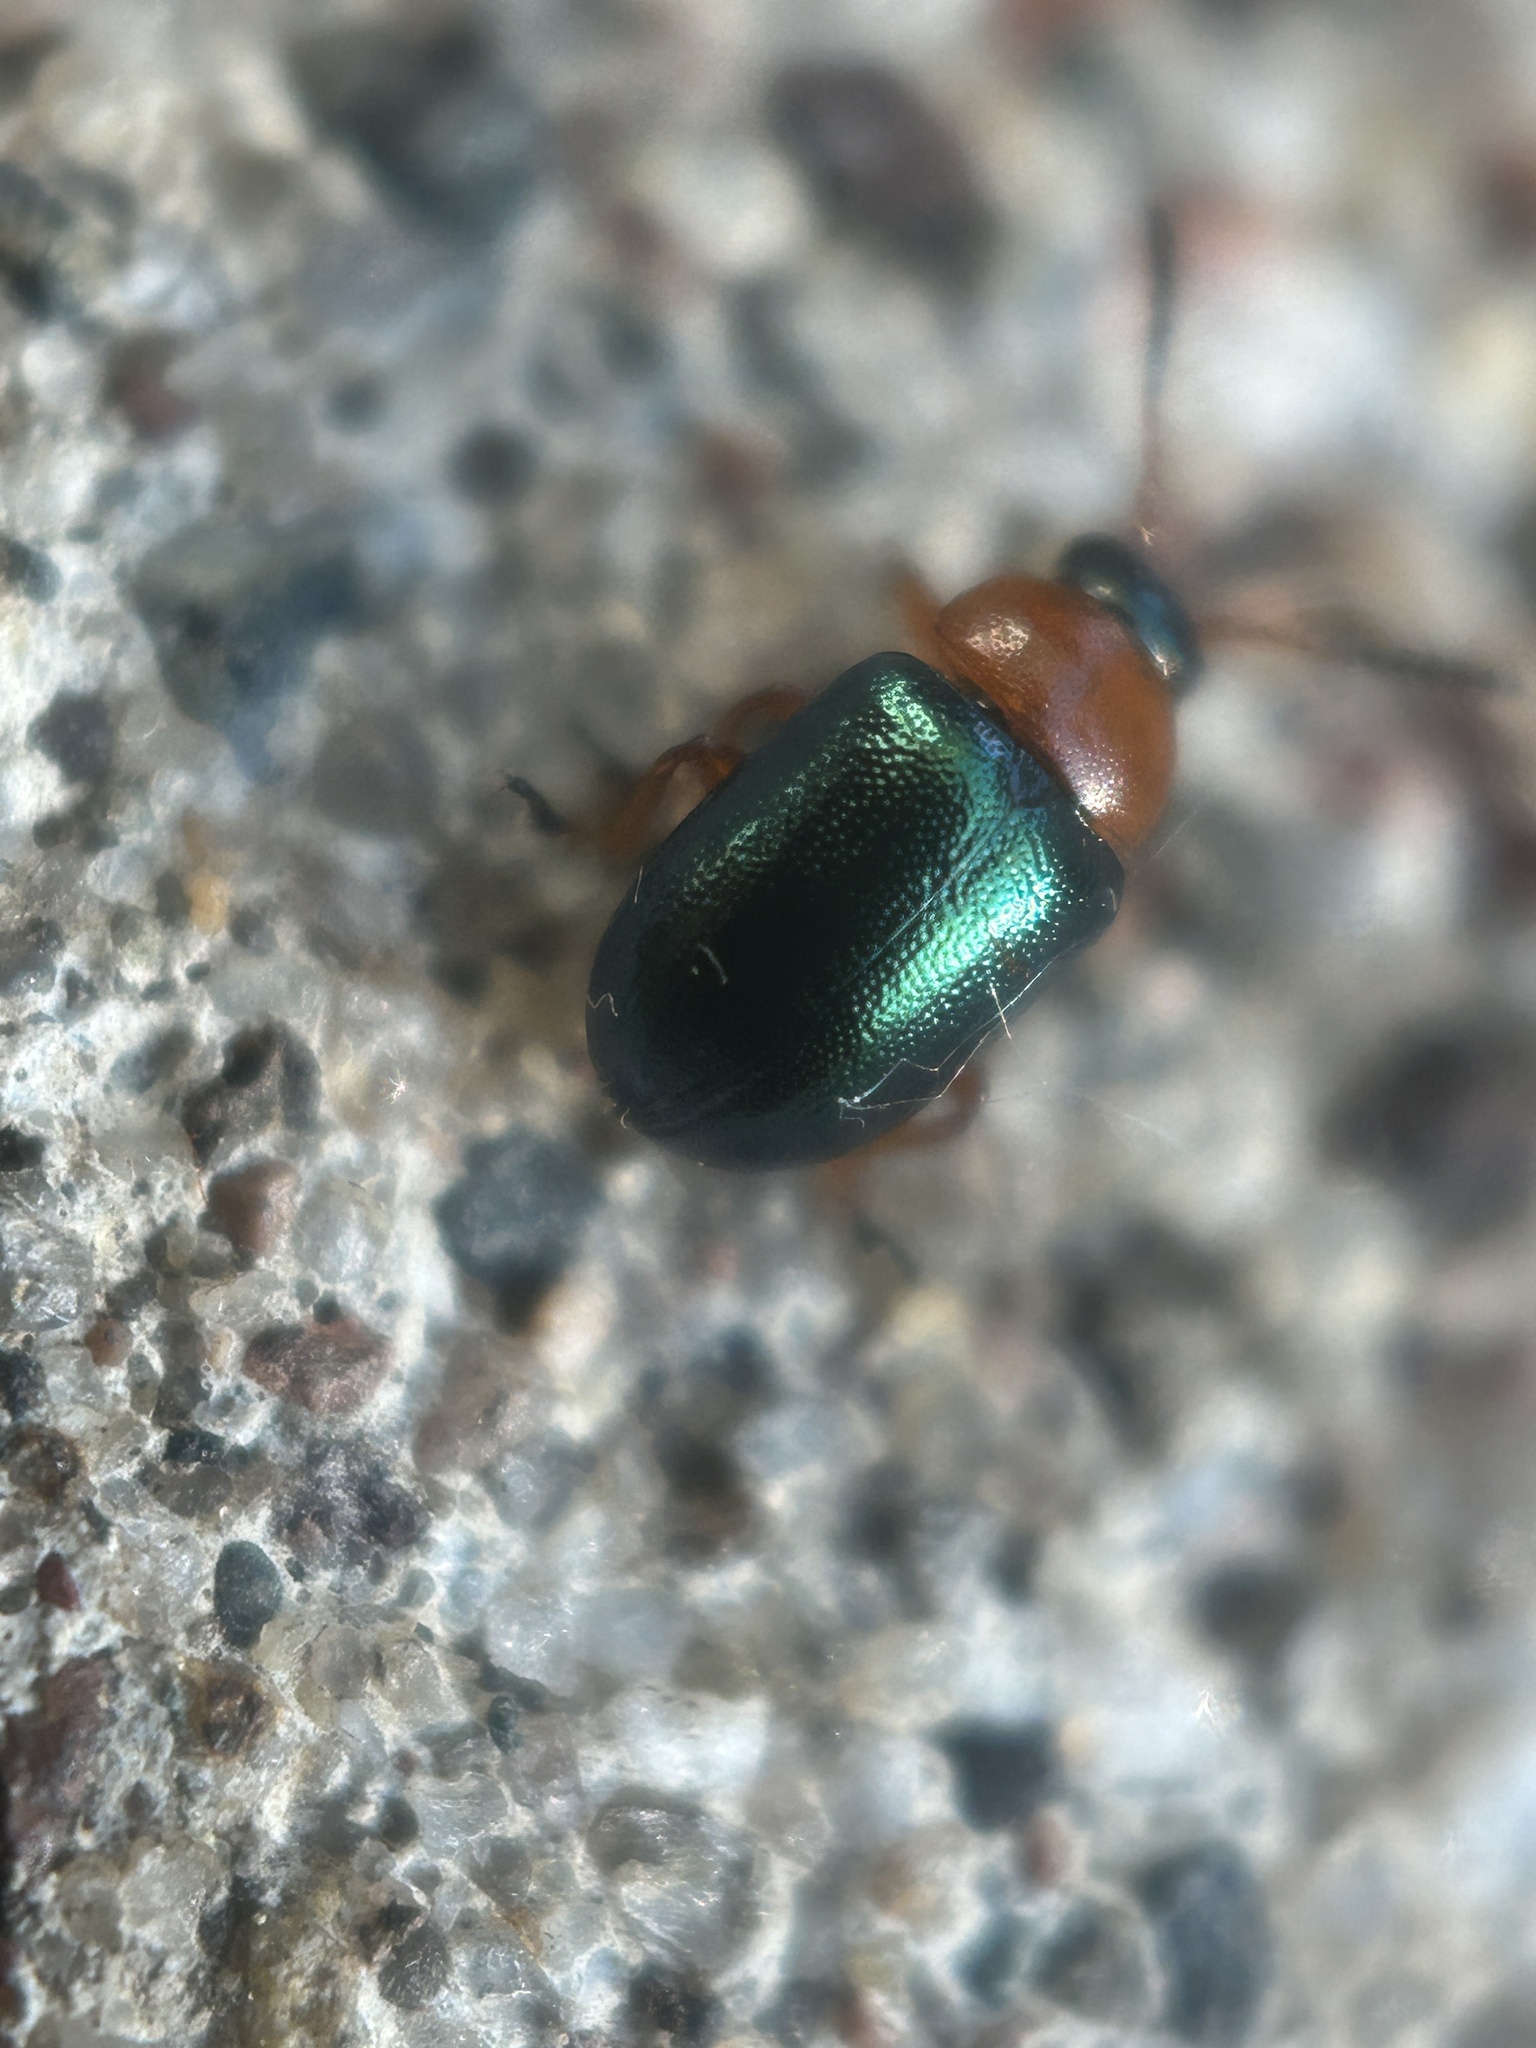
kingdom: Animalia
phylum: Arthropoda
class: Insecta
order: Coleoptera
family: Chrysomelidae
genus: Gastrophysa
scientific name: Gastrophysa polygoni
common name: Knotweed leaf beetle
